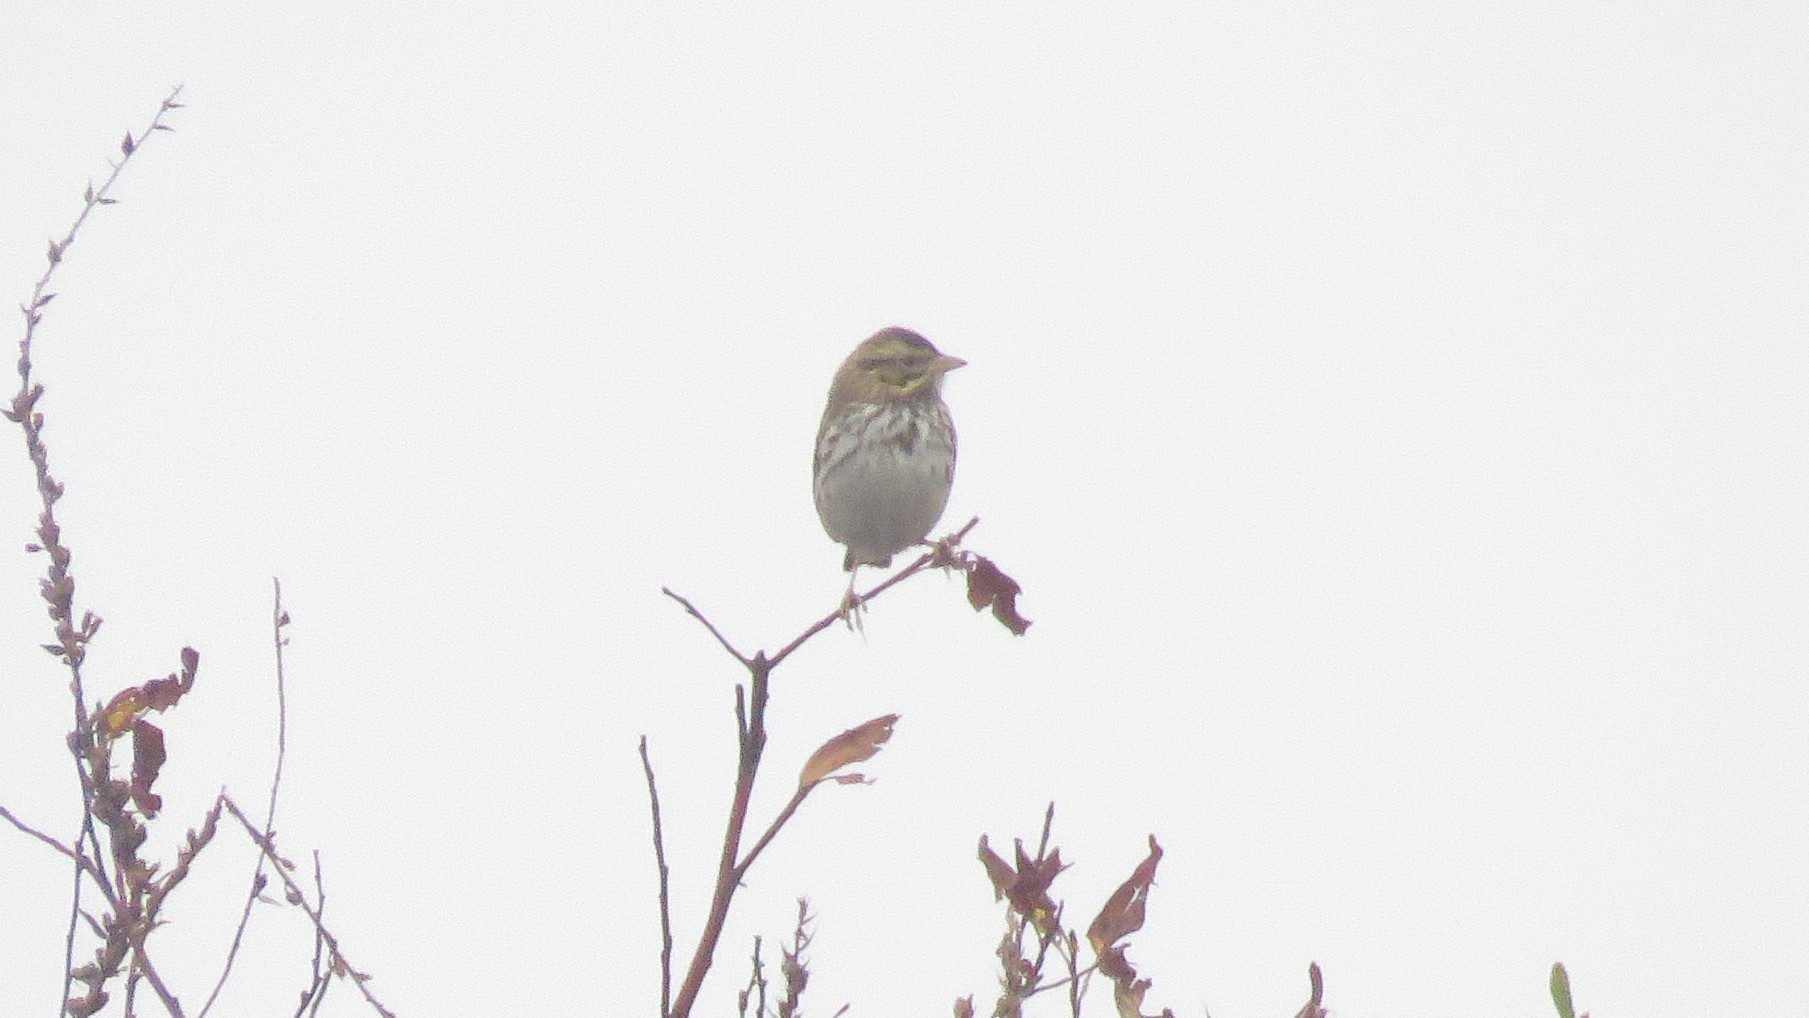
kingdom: Animalia
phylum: Chordata
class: Aves
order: Passeriformes
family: Passerellidae
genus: Passerculus
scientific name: Passerculus sandwichensis
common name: Savannah sparrow
